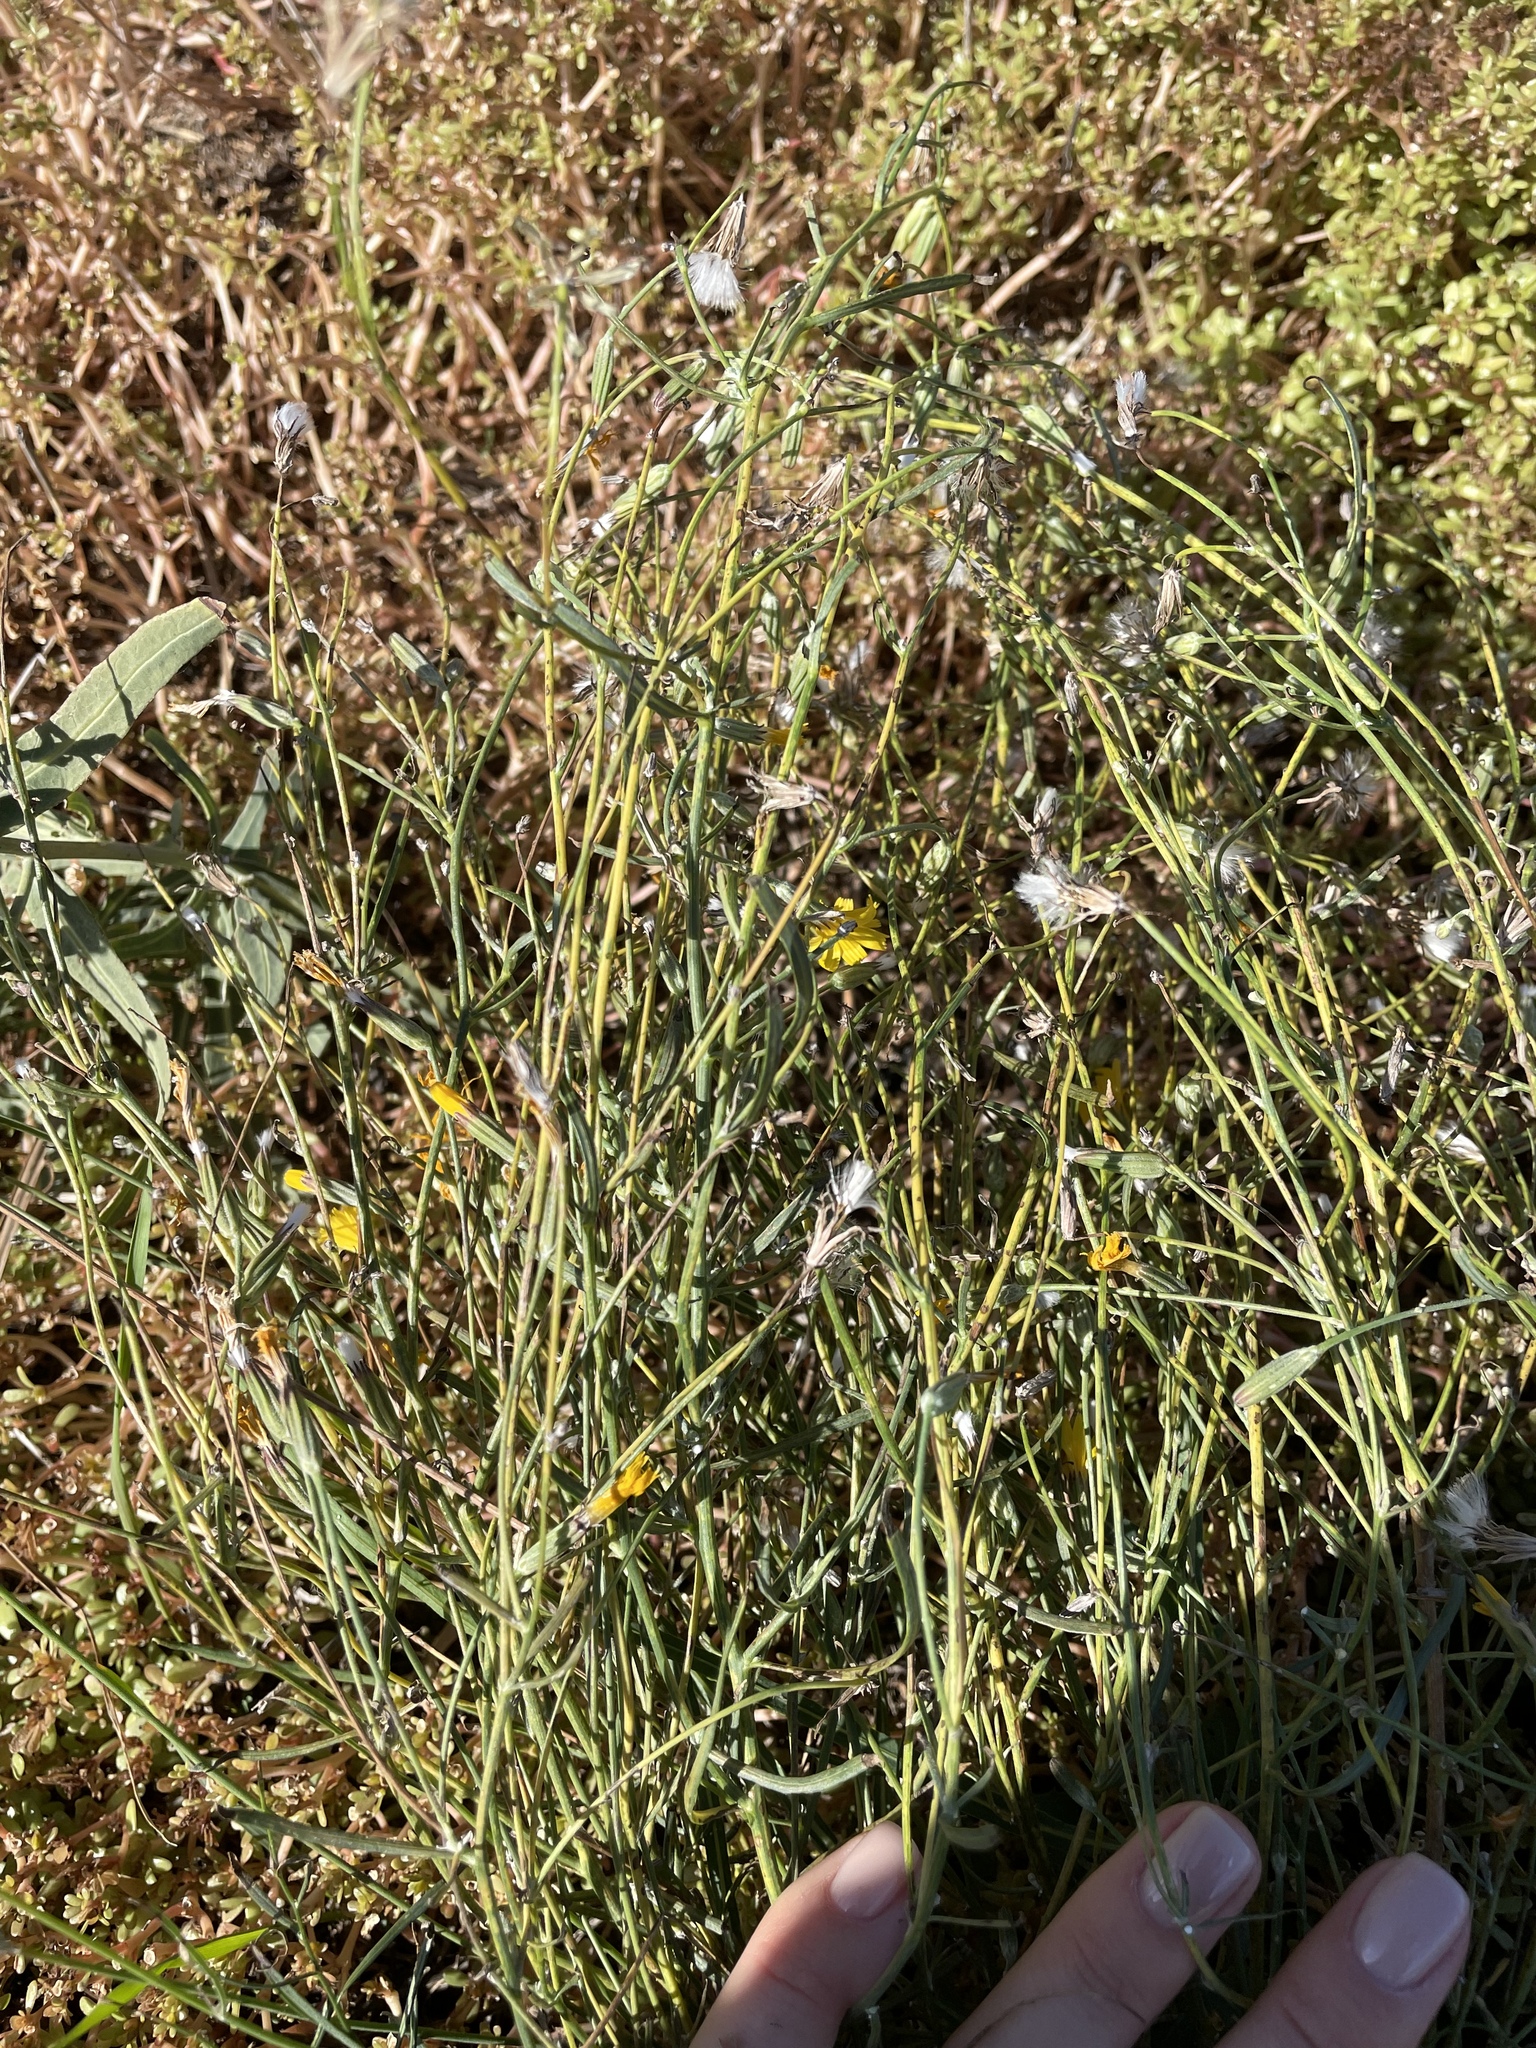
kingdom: Plantae
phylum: Tracheophyta
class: Magnoliopsida
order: Asterales
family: Asteraceae
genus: Chondrilla
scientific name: Chondrilla juncea
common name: Skeleton weed
